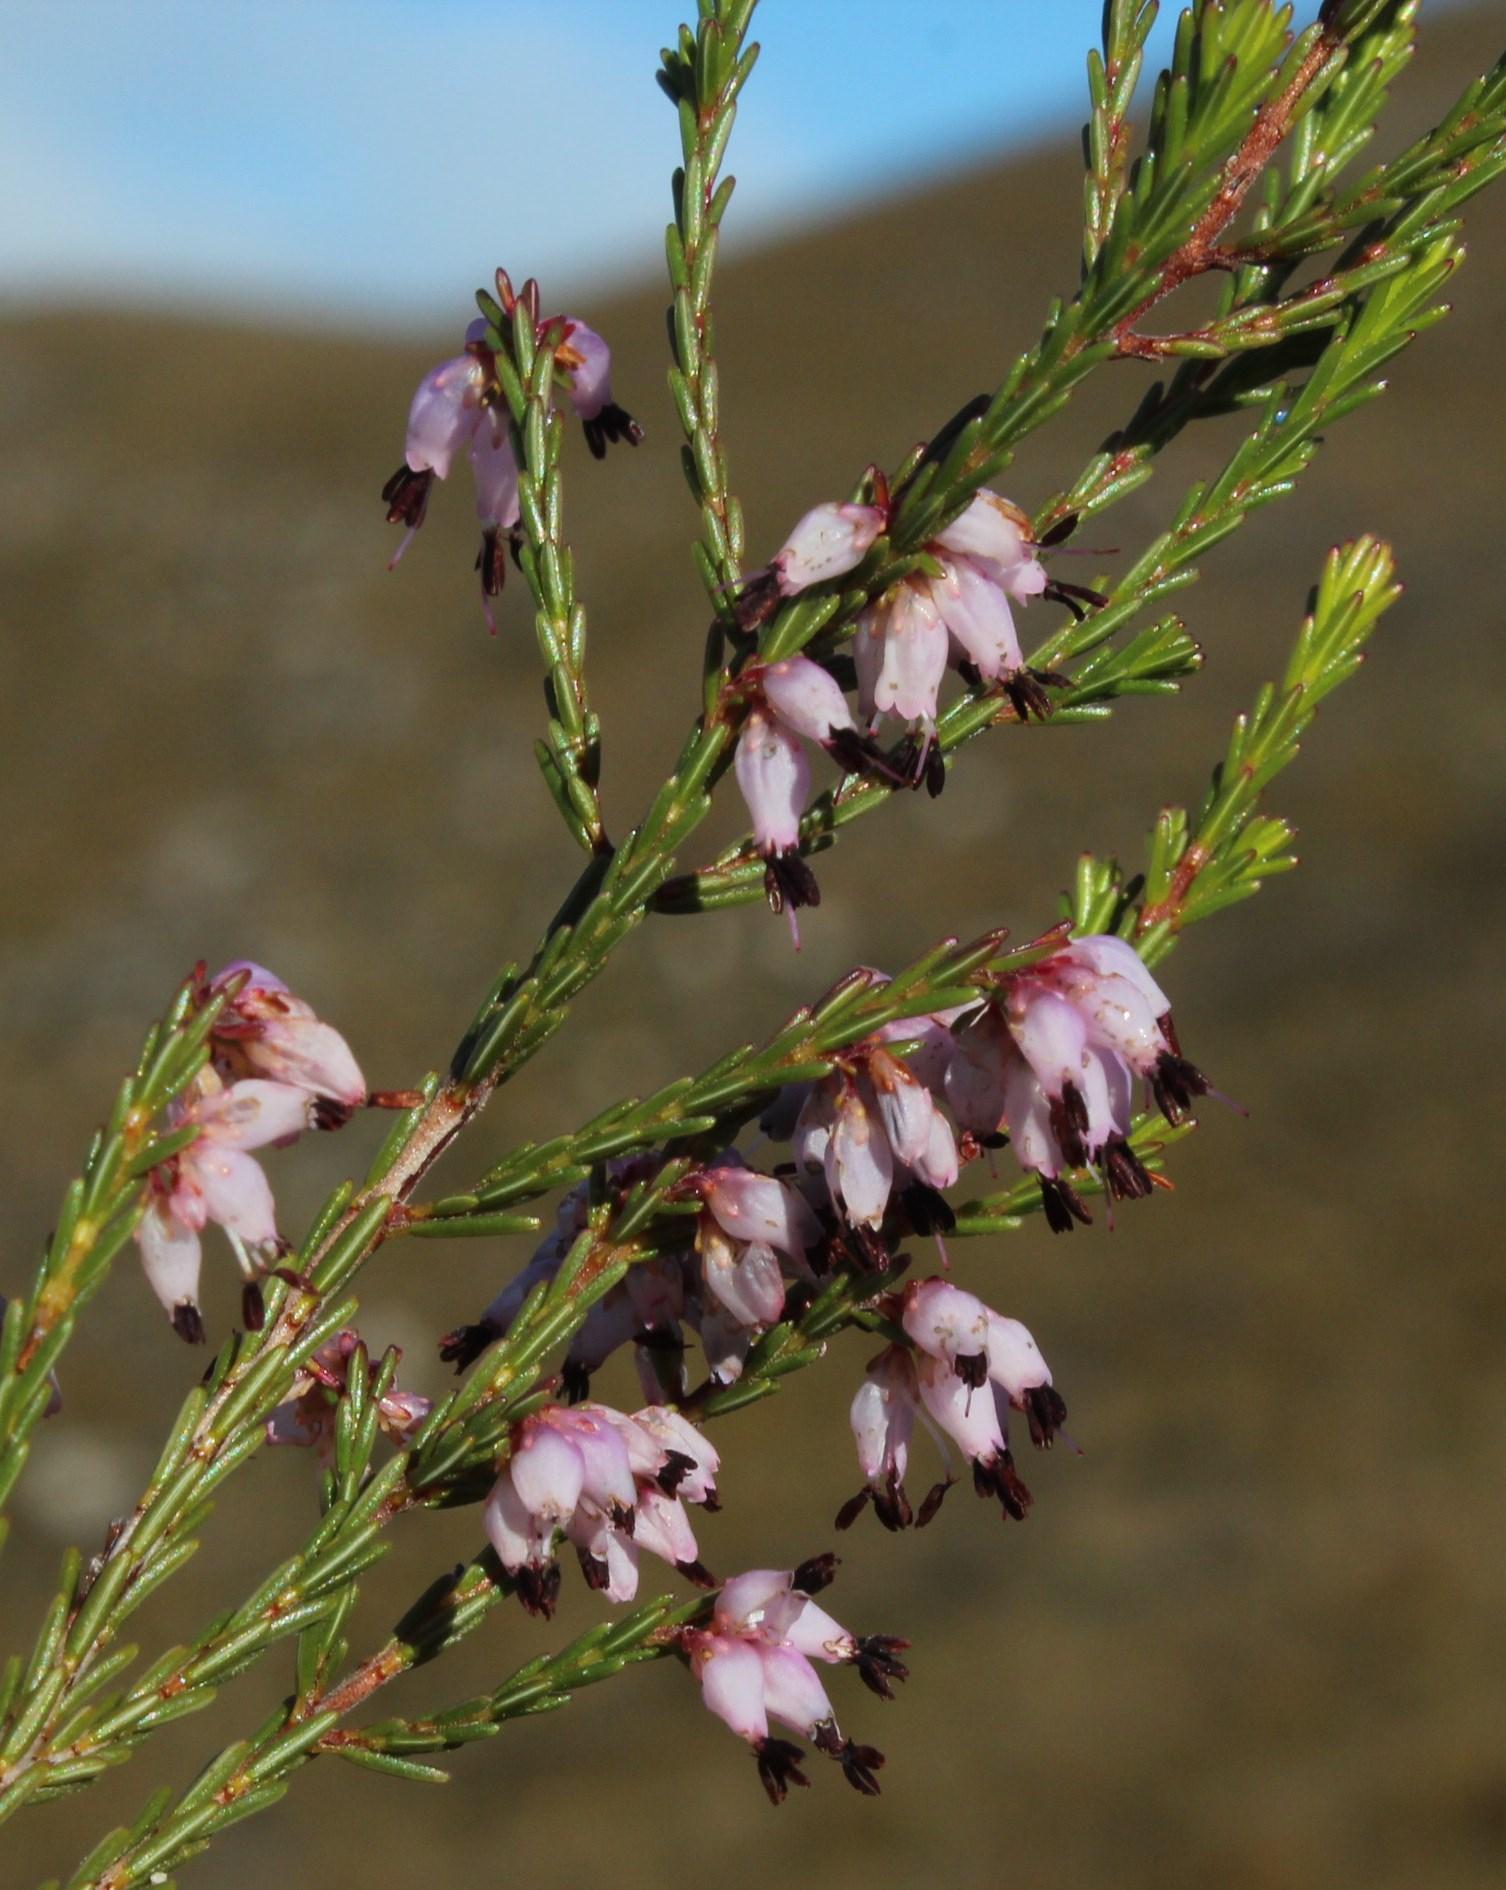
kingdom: Plantae
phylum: Tracheophyta
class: Magnoliopsida
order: Ericales
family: Ericaceae
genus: Erica
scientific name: Erica rosacea
